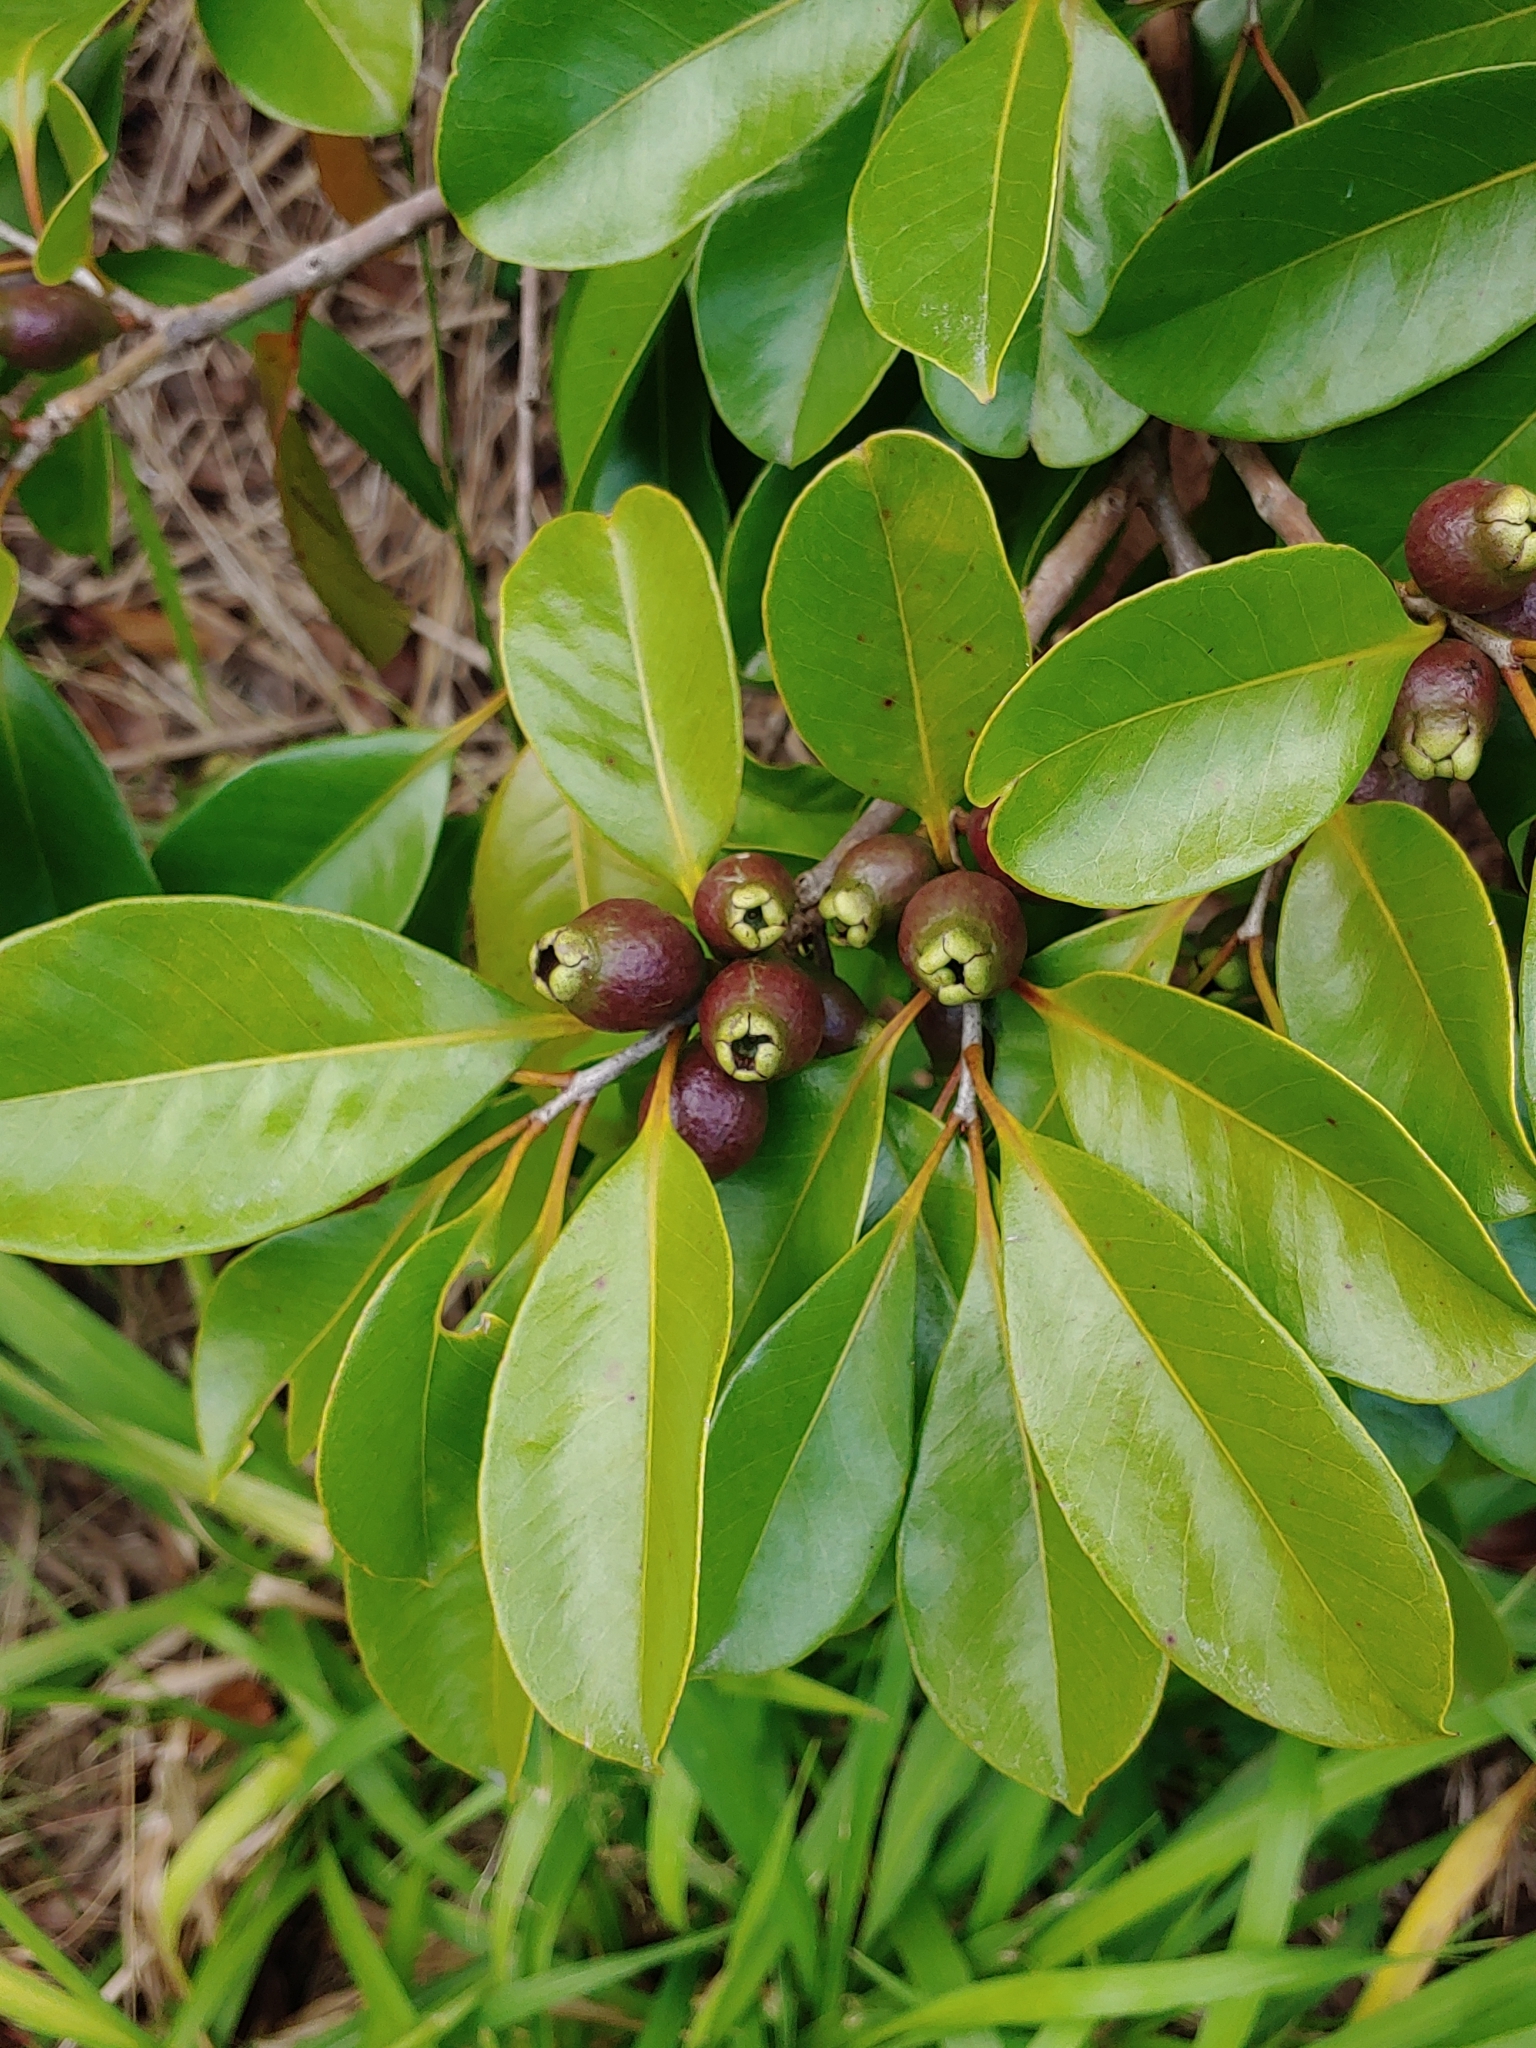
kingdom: Plantae
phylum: Tracheophyta
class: Magnoliopsida
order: Myrtales
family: Myrtaceae
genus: Psidium
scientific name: Psidium cattleianum
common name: Strawberry guava
